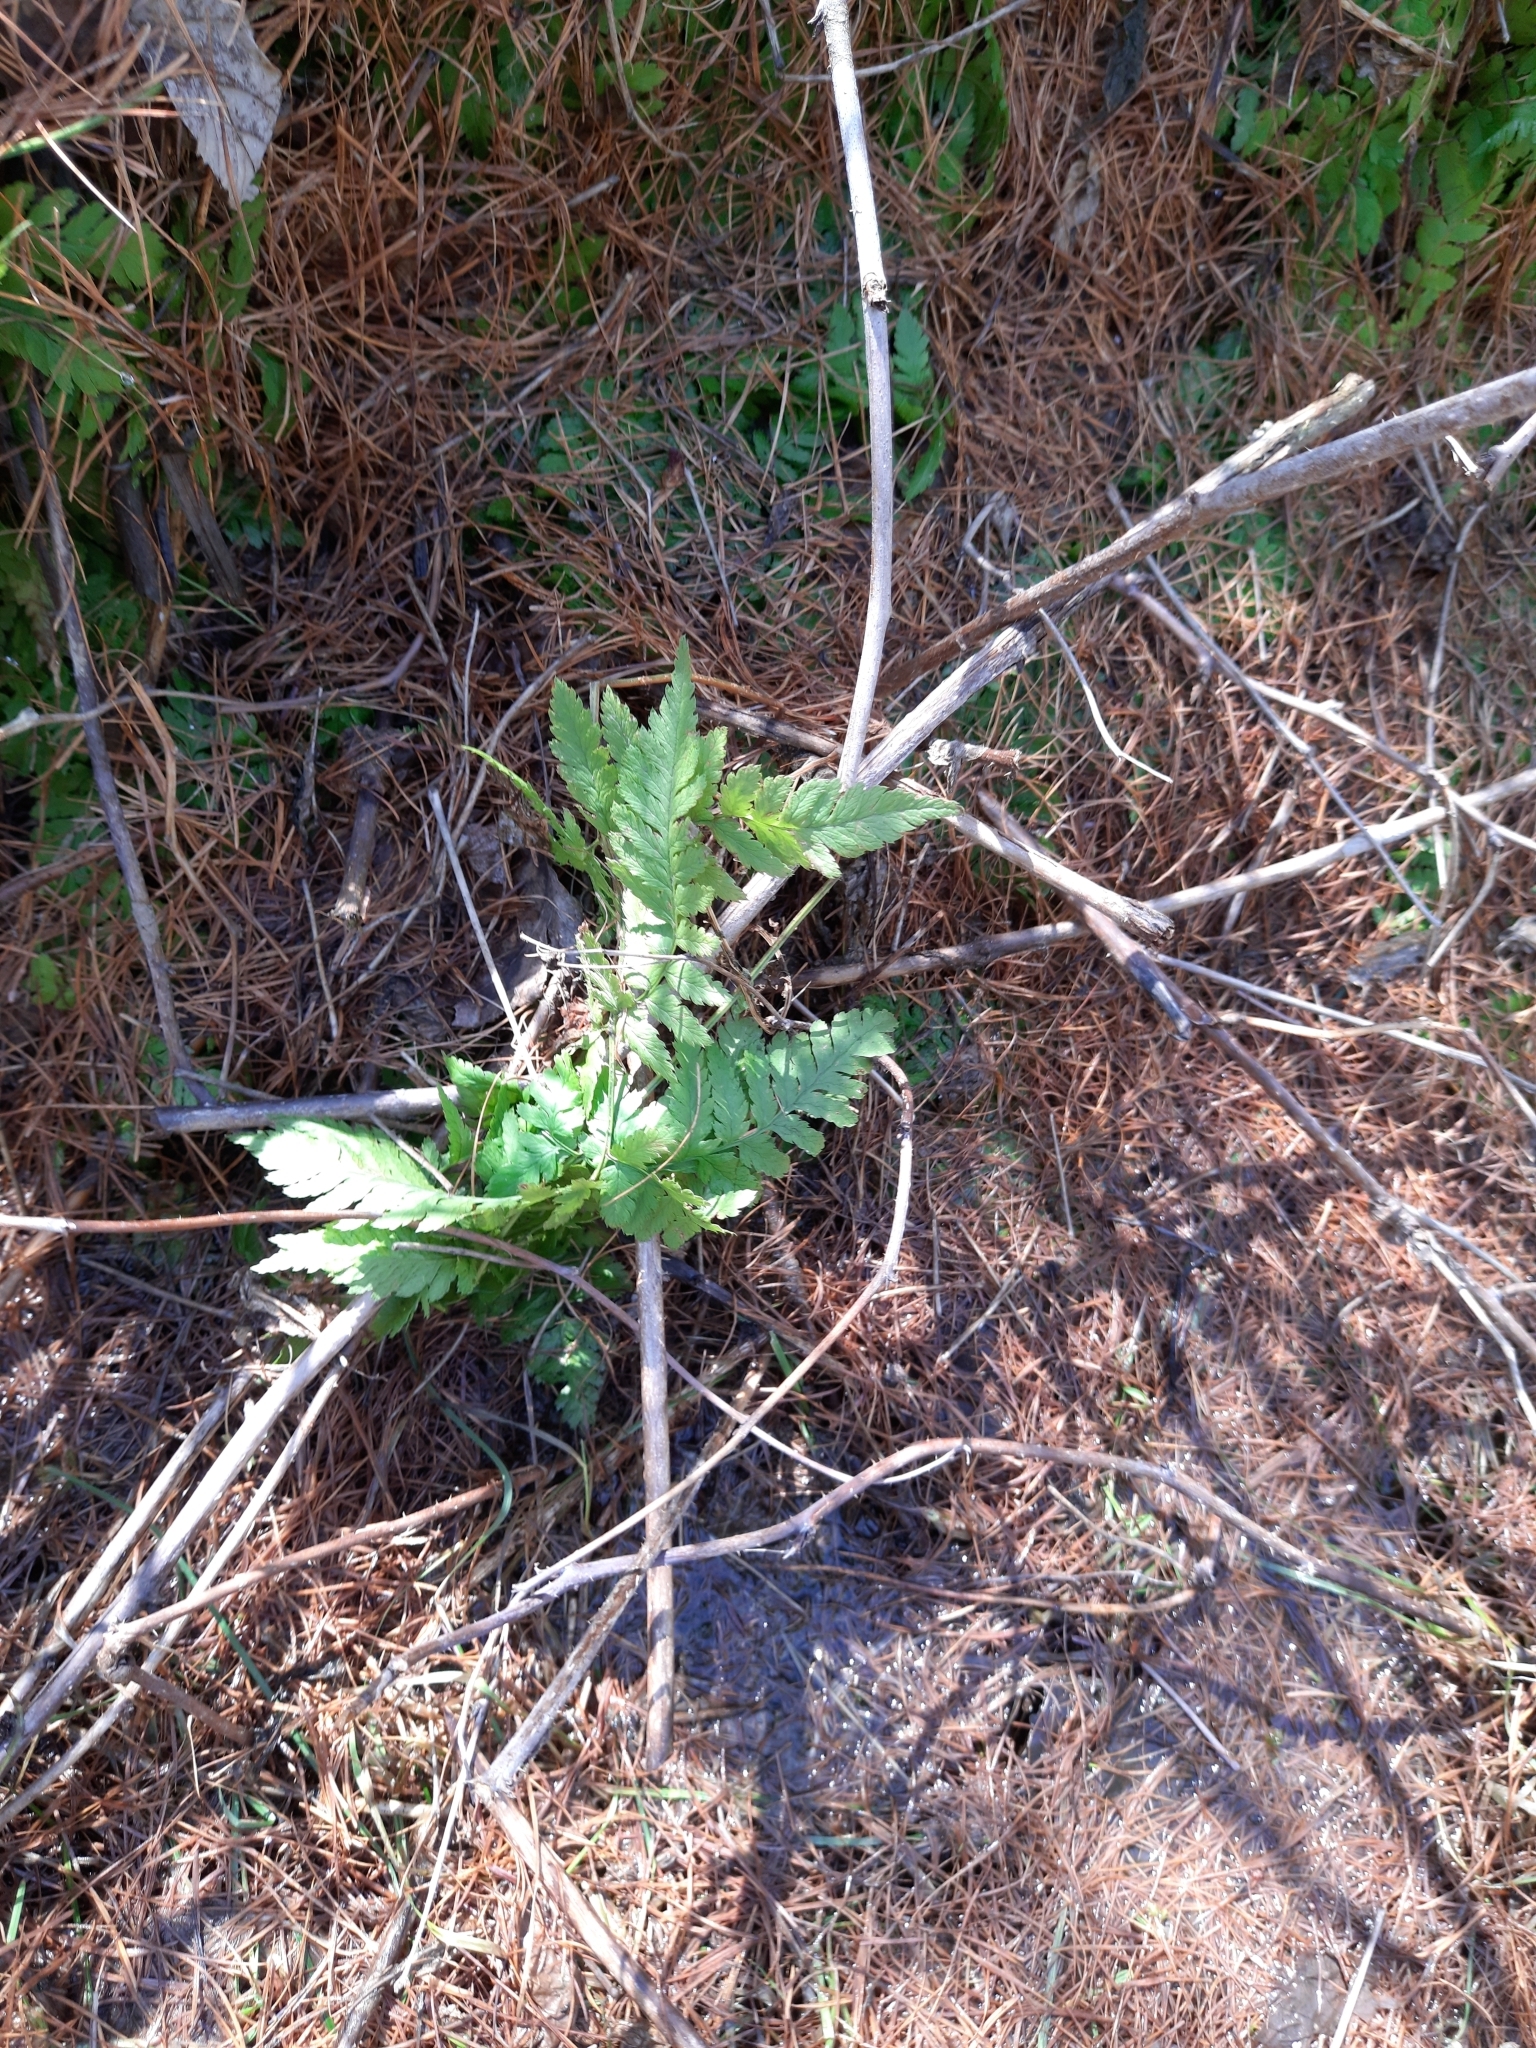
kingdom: Plantae
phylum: Tracheophyta
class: Polypodiopsida
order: Polypodiales
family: Dryopteridaceae
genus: Dryopteris
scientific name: Dryopteris carthusiana
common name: Narrow buckler-fern
